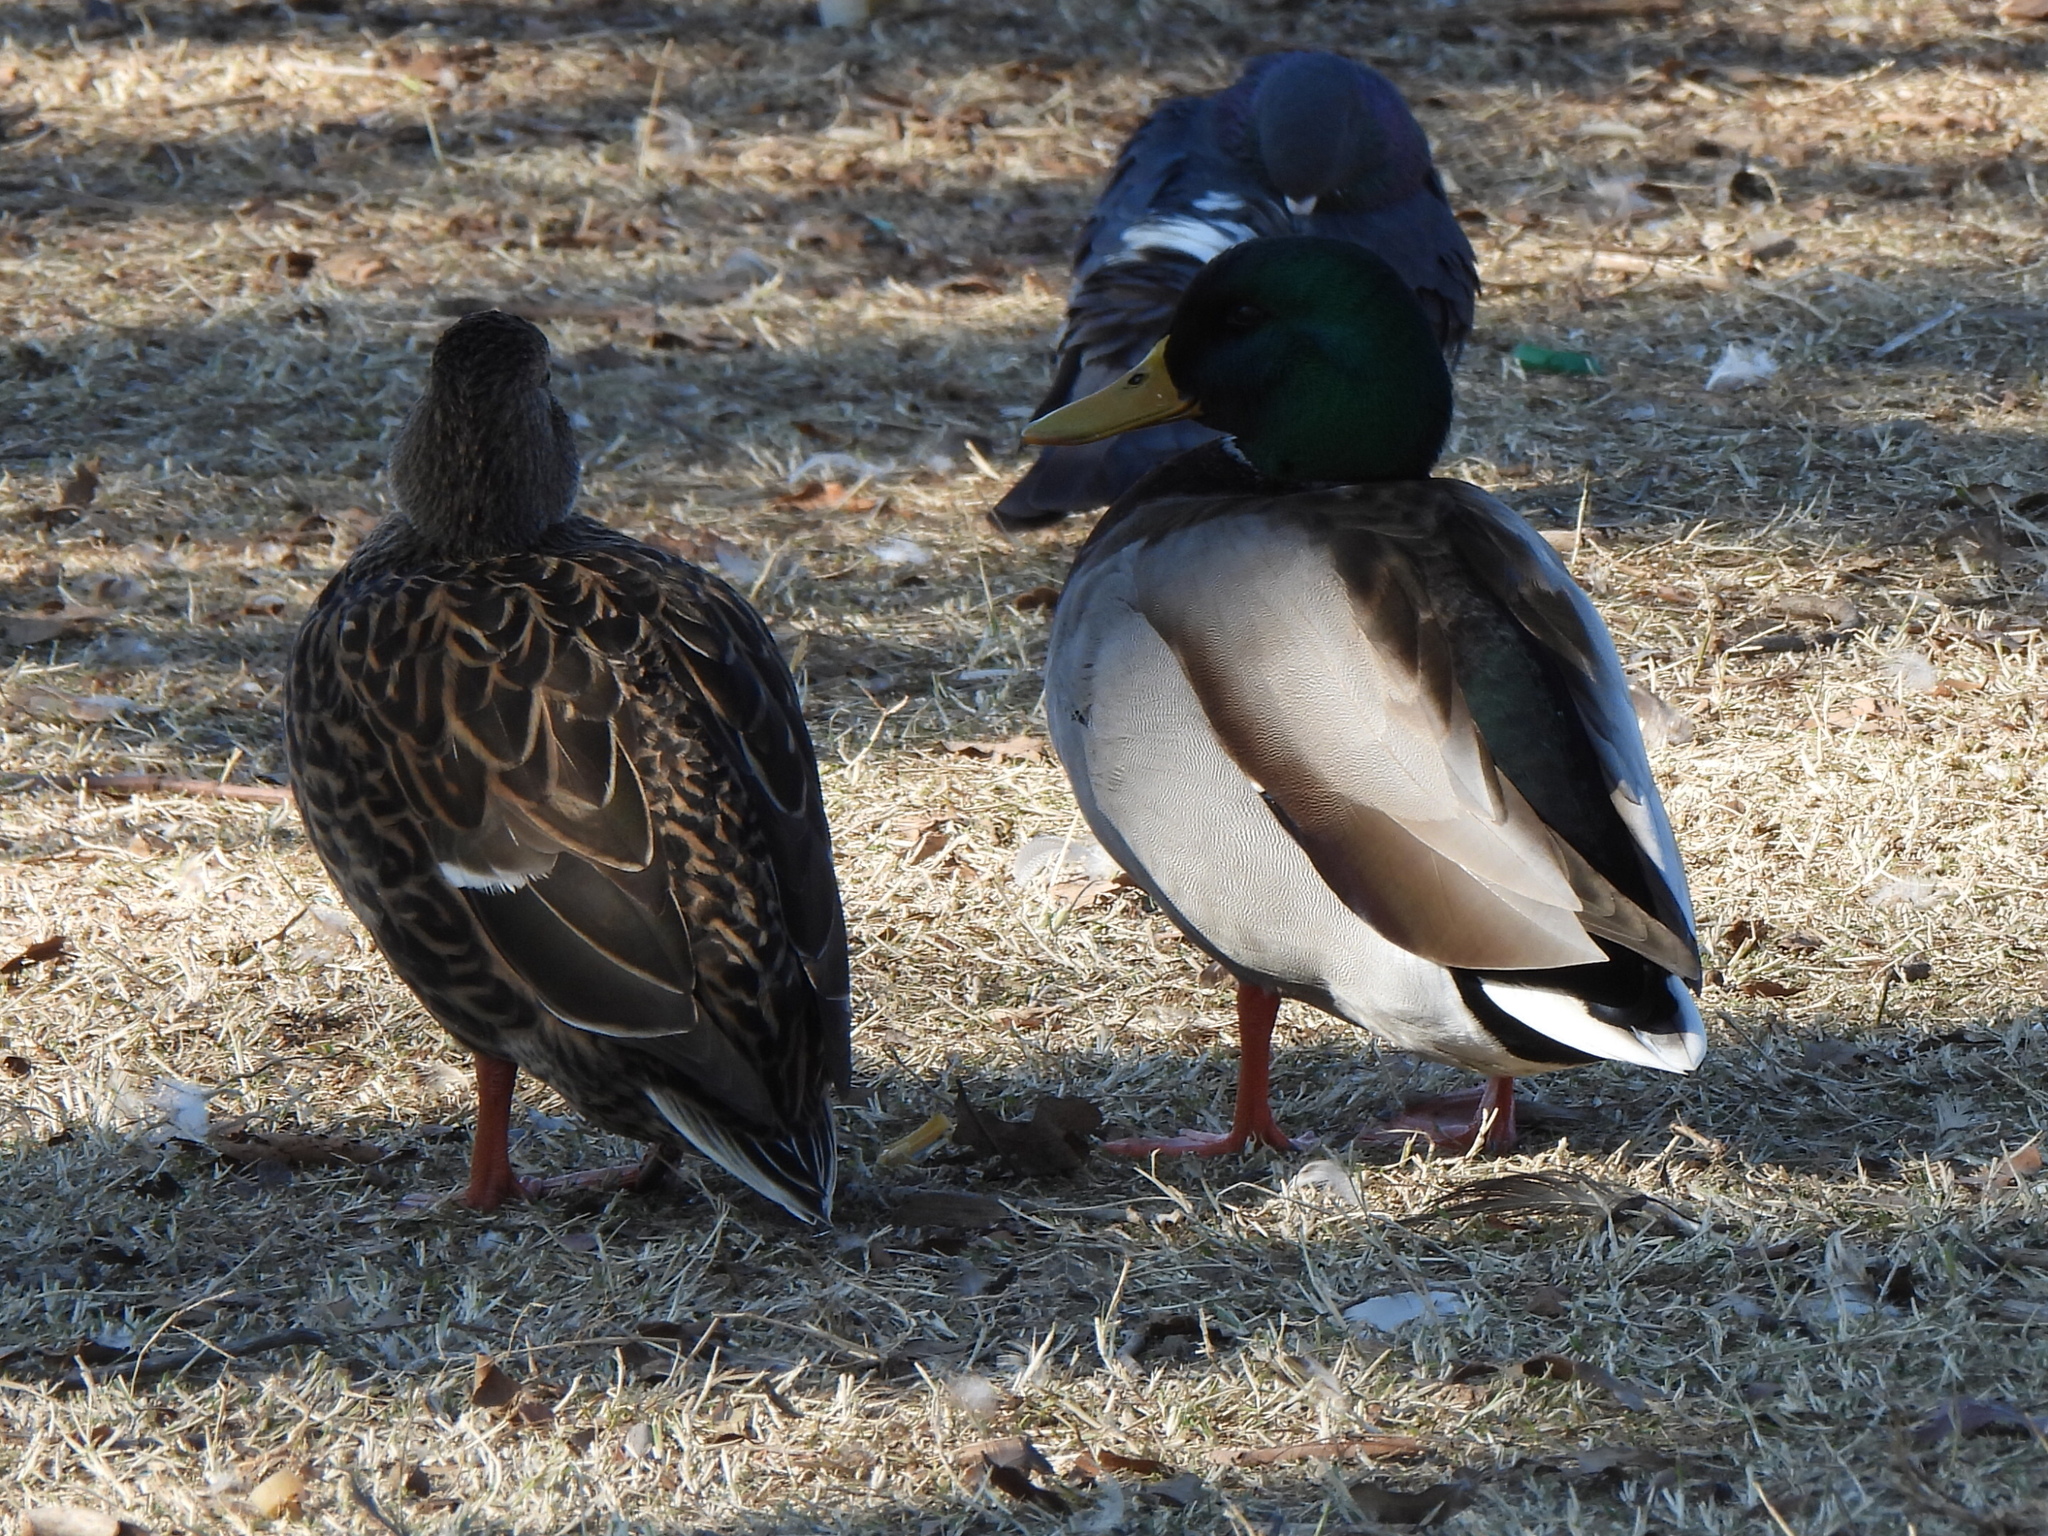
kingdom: Animalia
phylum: Chordata
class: Aves
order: Anseriformes
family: Anatidae
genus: Anas
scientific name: Anas platyrhynchos
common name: Mallard
